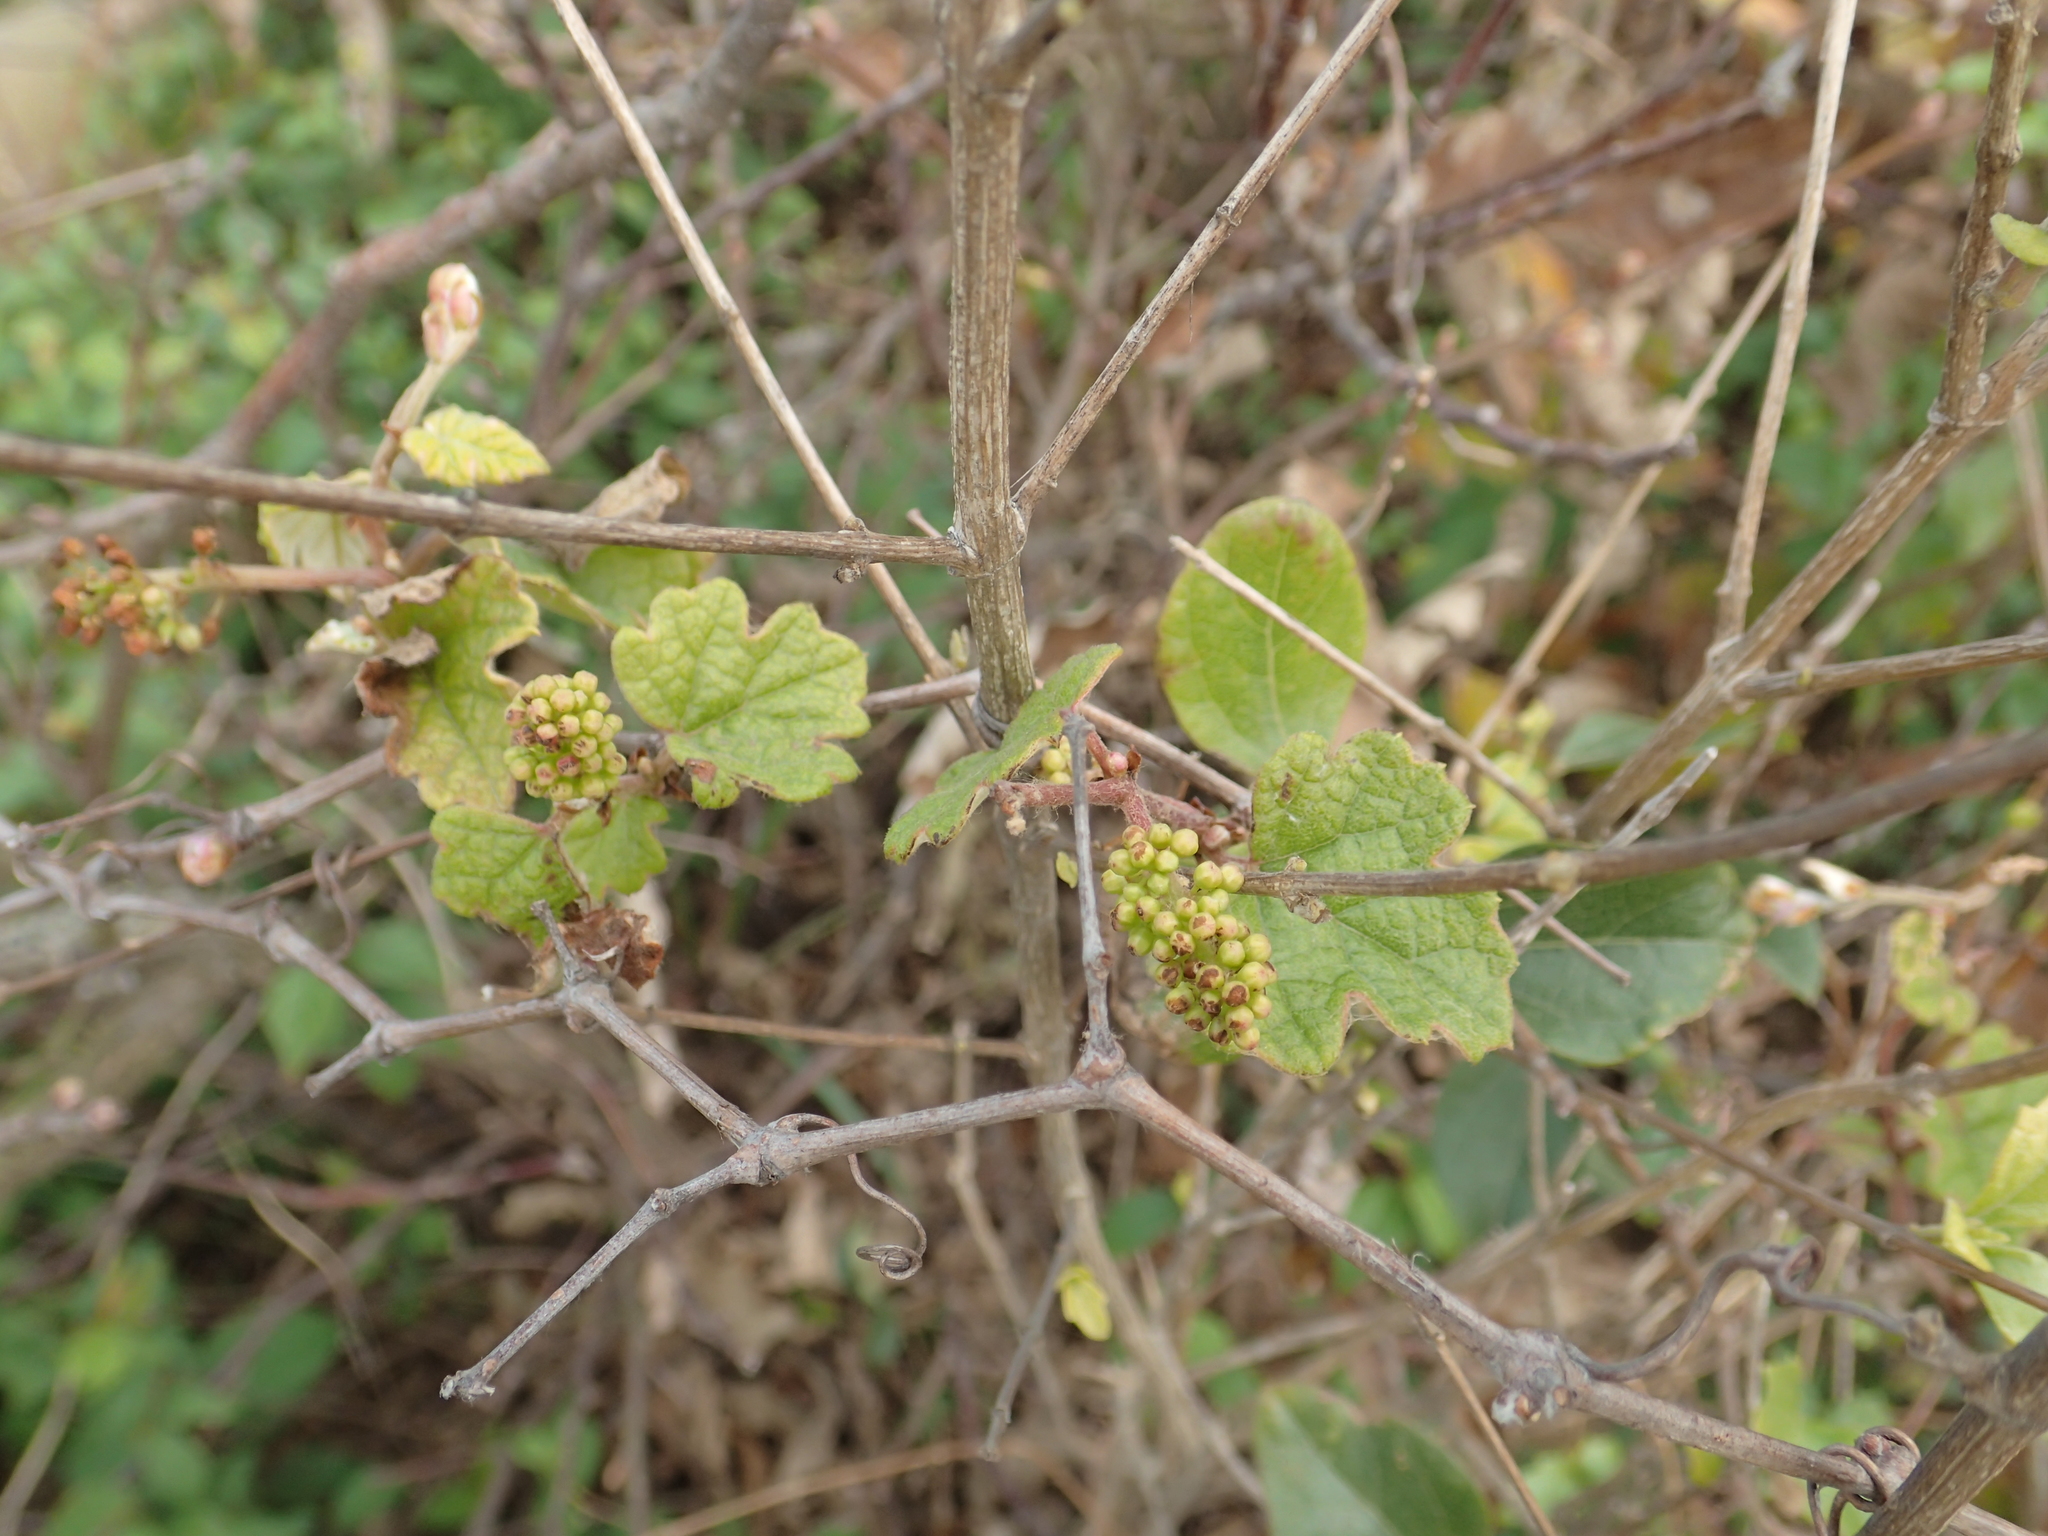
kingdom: Plantae
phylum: Tracheophyta
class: Magnoliopsida
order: Vitales
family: Vitaceae
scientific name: Vitaceae
